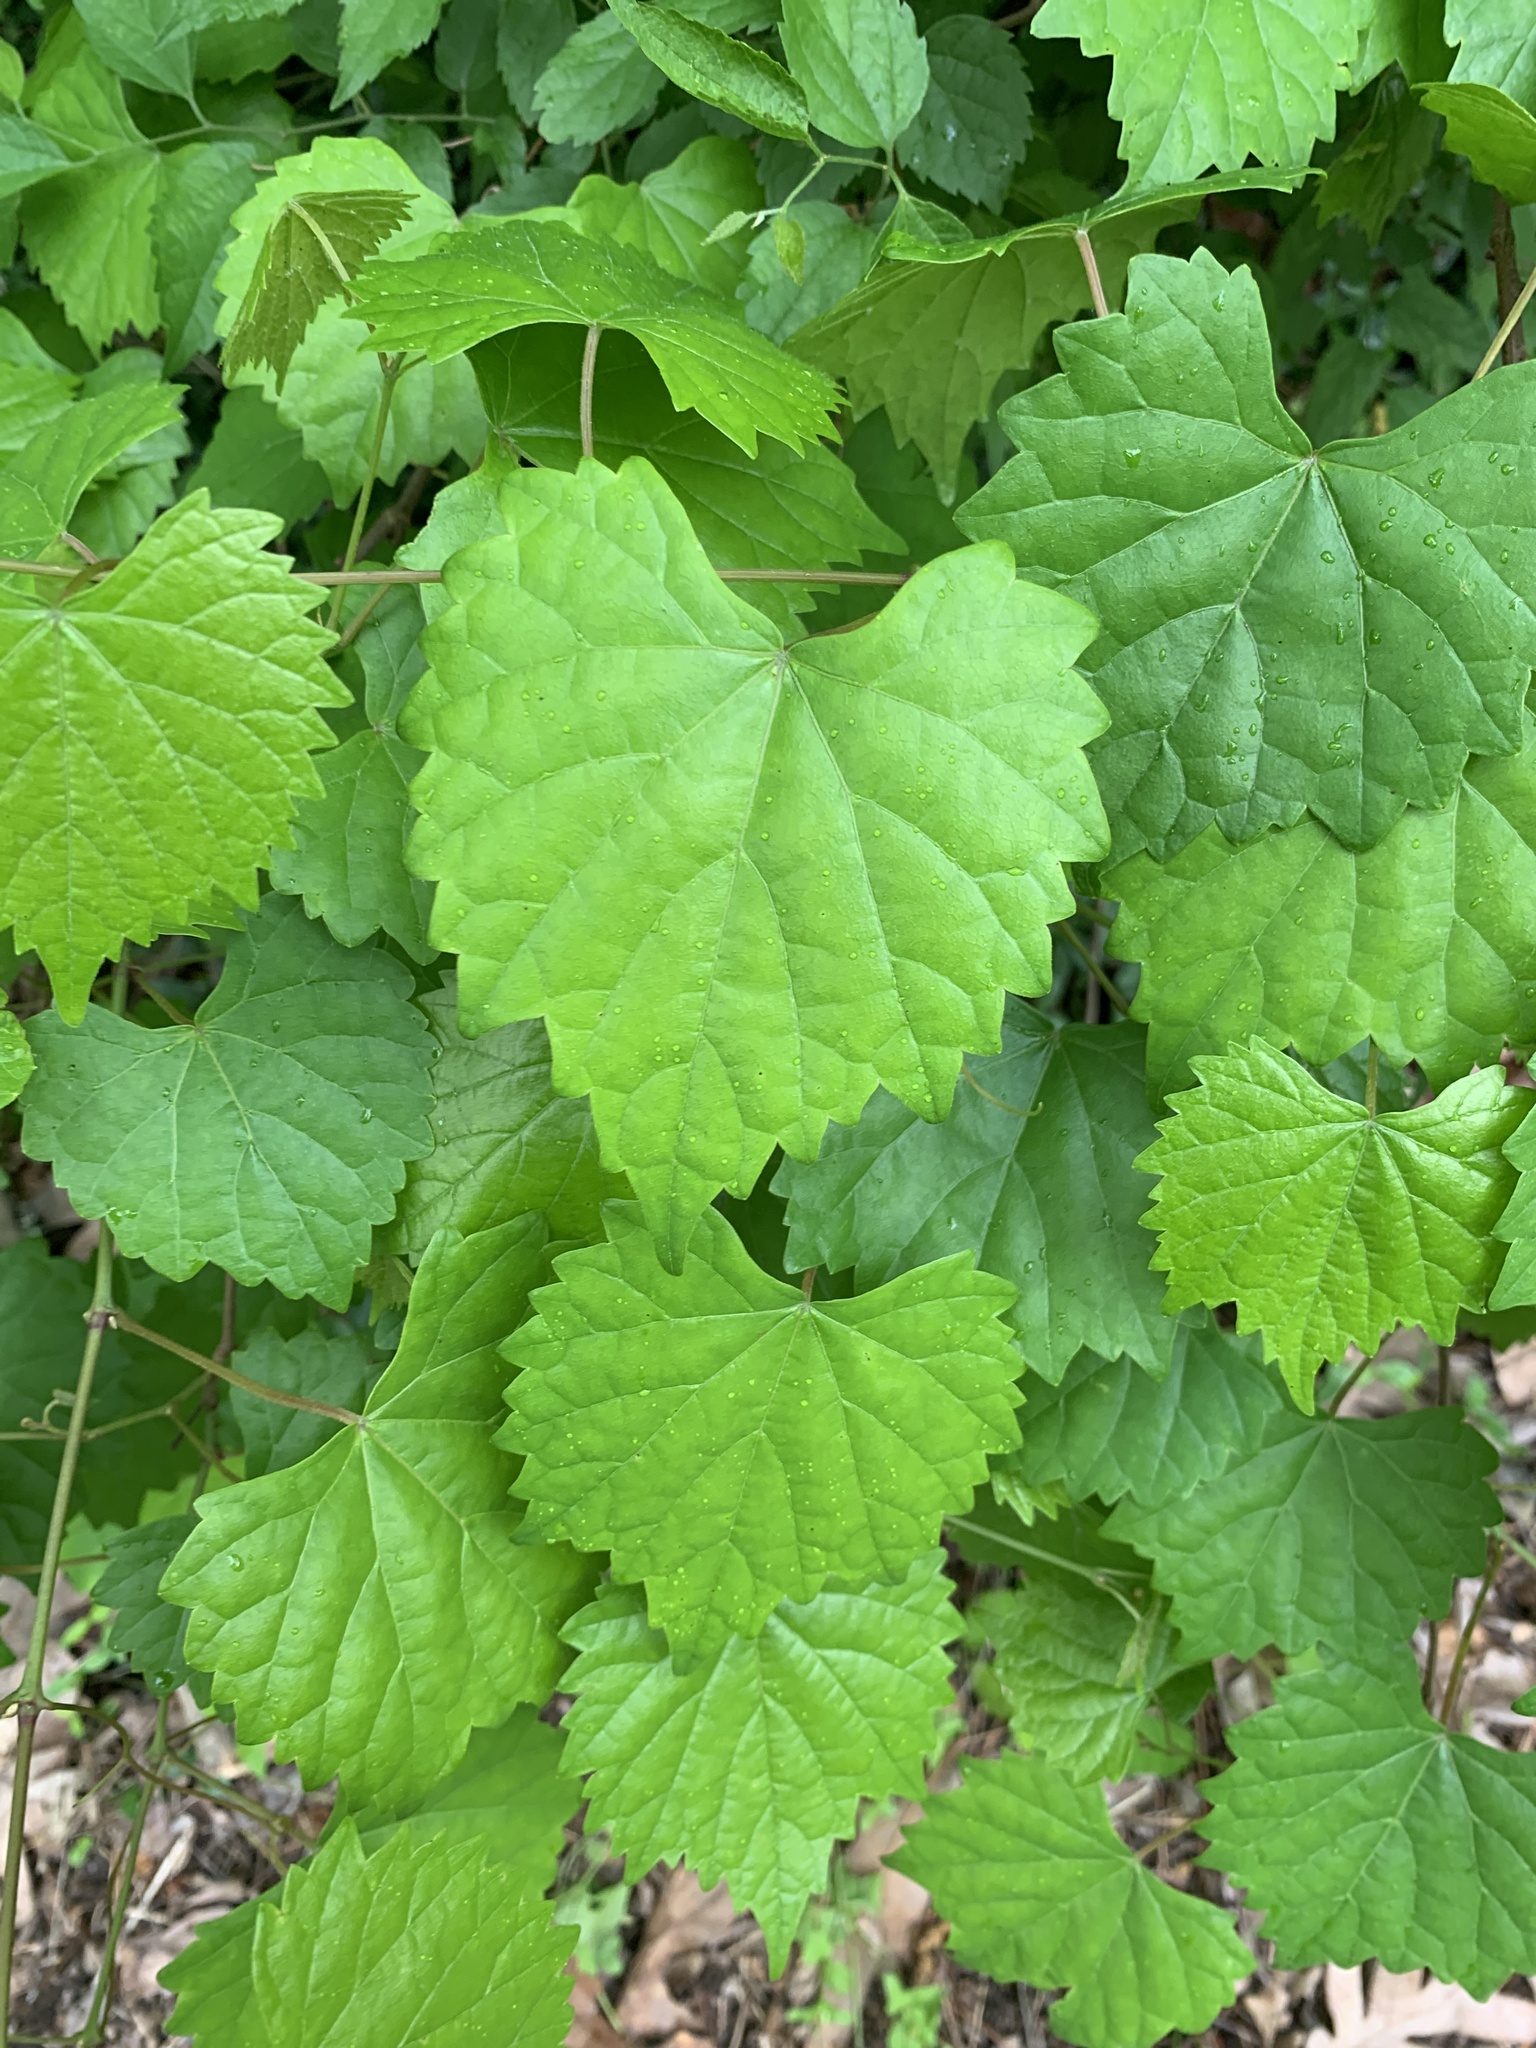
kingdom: Plantae
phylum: Tracheophyta
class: Magnoliopsida
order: Vitales
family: Vitaceae
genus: Vitis
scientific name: Vitis rotundifolia
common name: Muscadine grape
